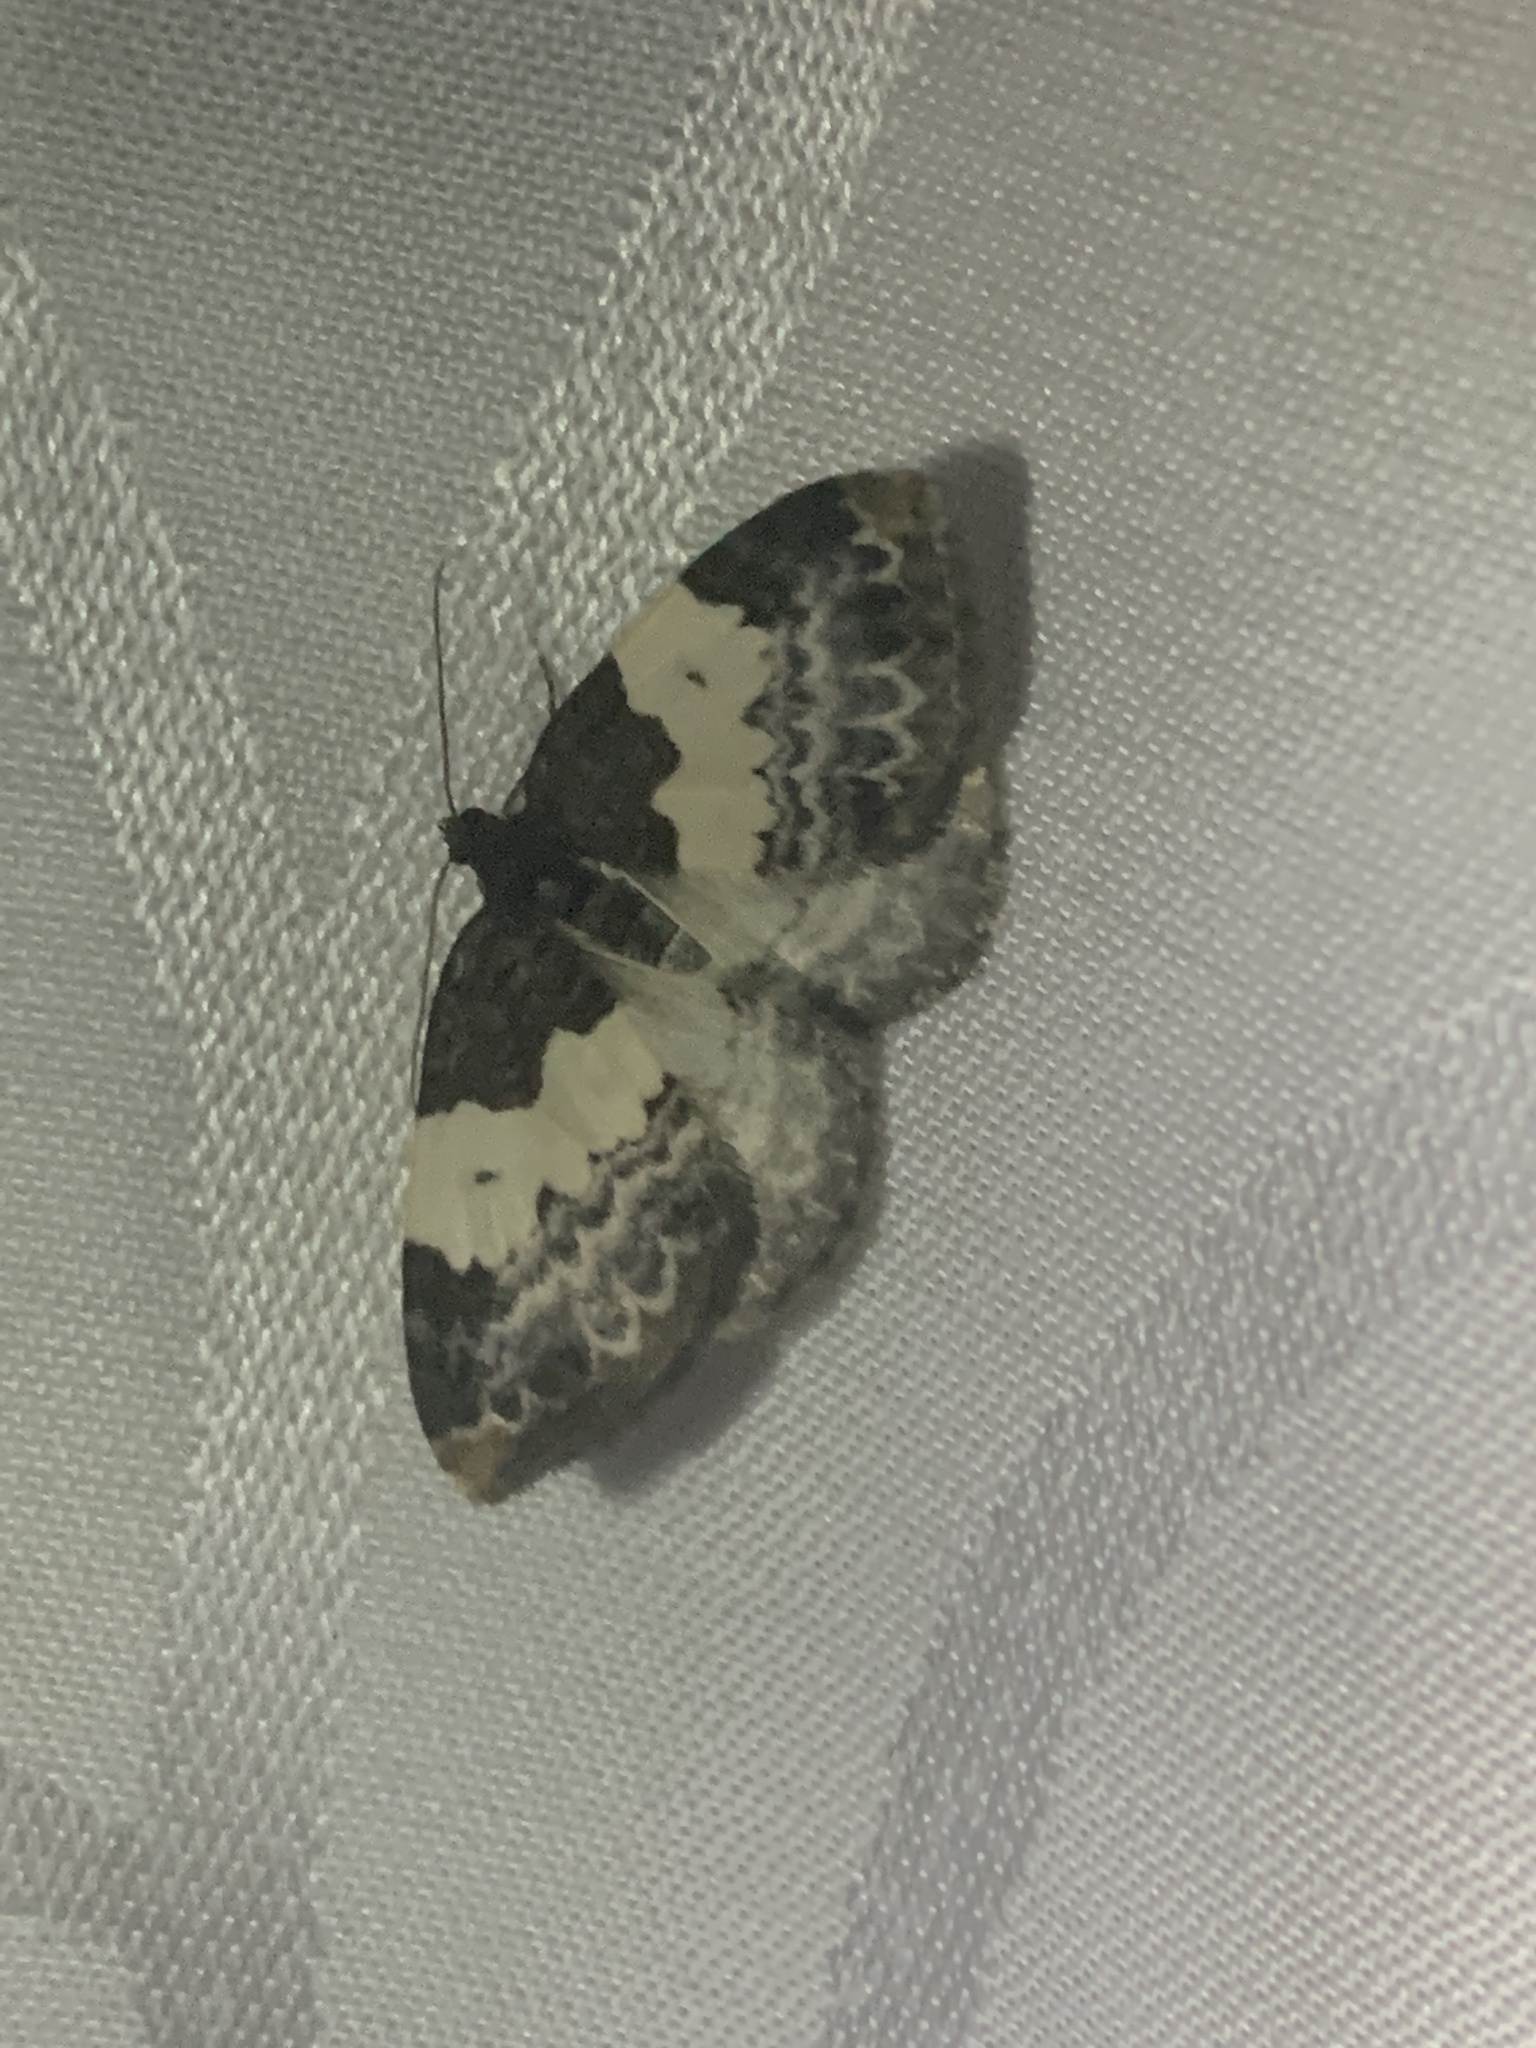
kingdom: Animalia
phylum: Arthropoda
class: Insecta
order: Lepidoptera
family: Geometridae
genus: Mesoleuca
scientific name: Mesoleuca ruficillata
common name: White-ribboned carpet moth
